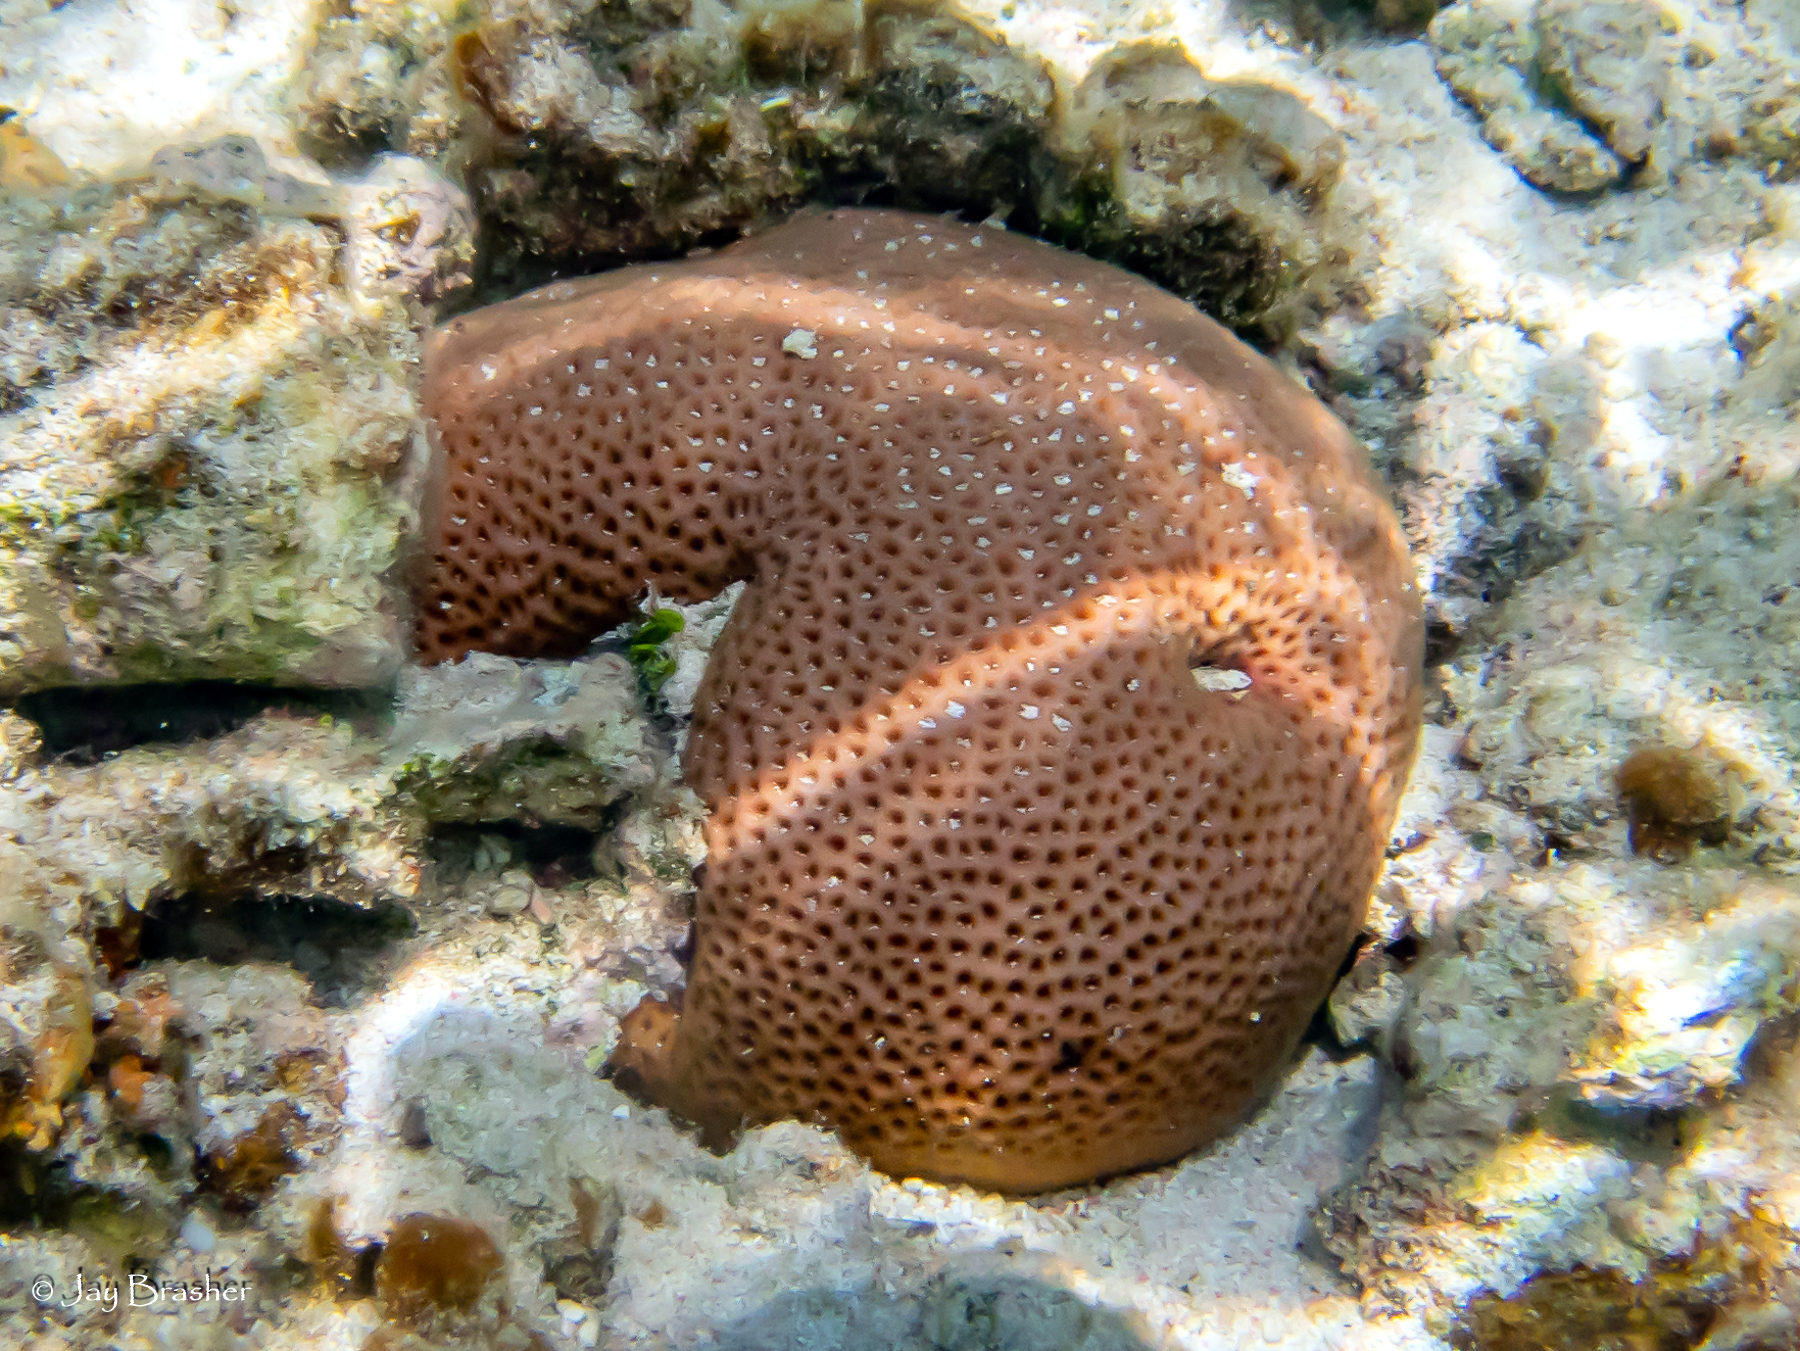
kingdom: Animalia
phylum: Cnidaria
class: Anthozoa
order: Scleractinia
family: Rhizangiidae
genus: Siderastrea
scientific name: Siderastrea siderea
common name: Massive starlet coral
